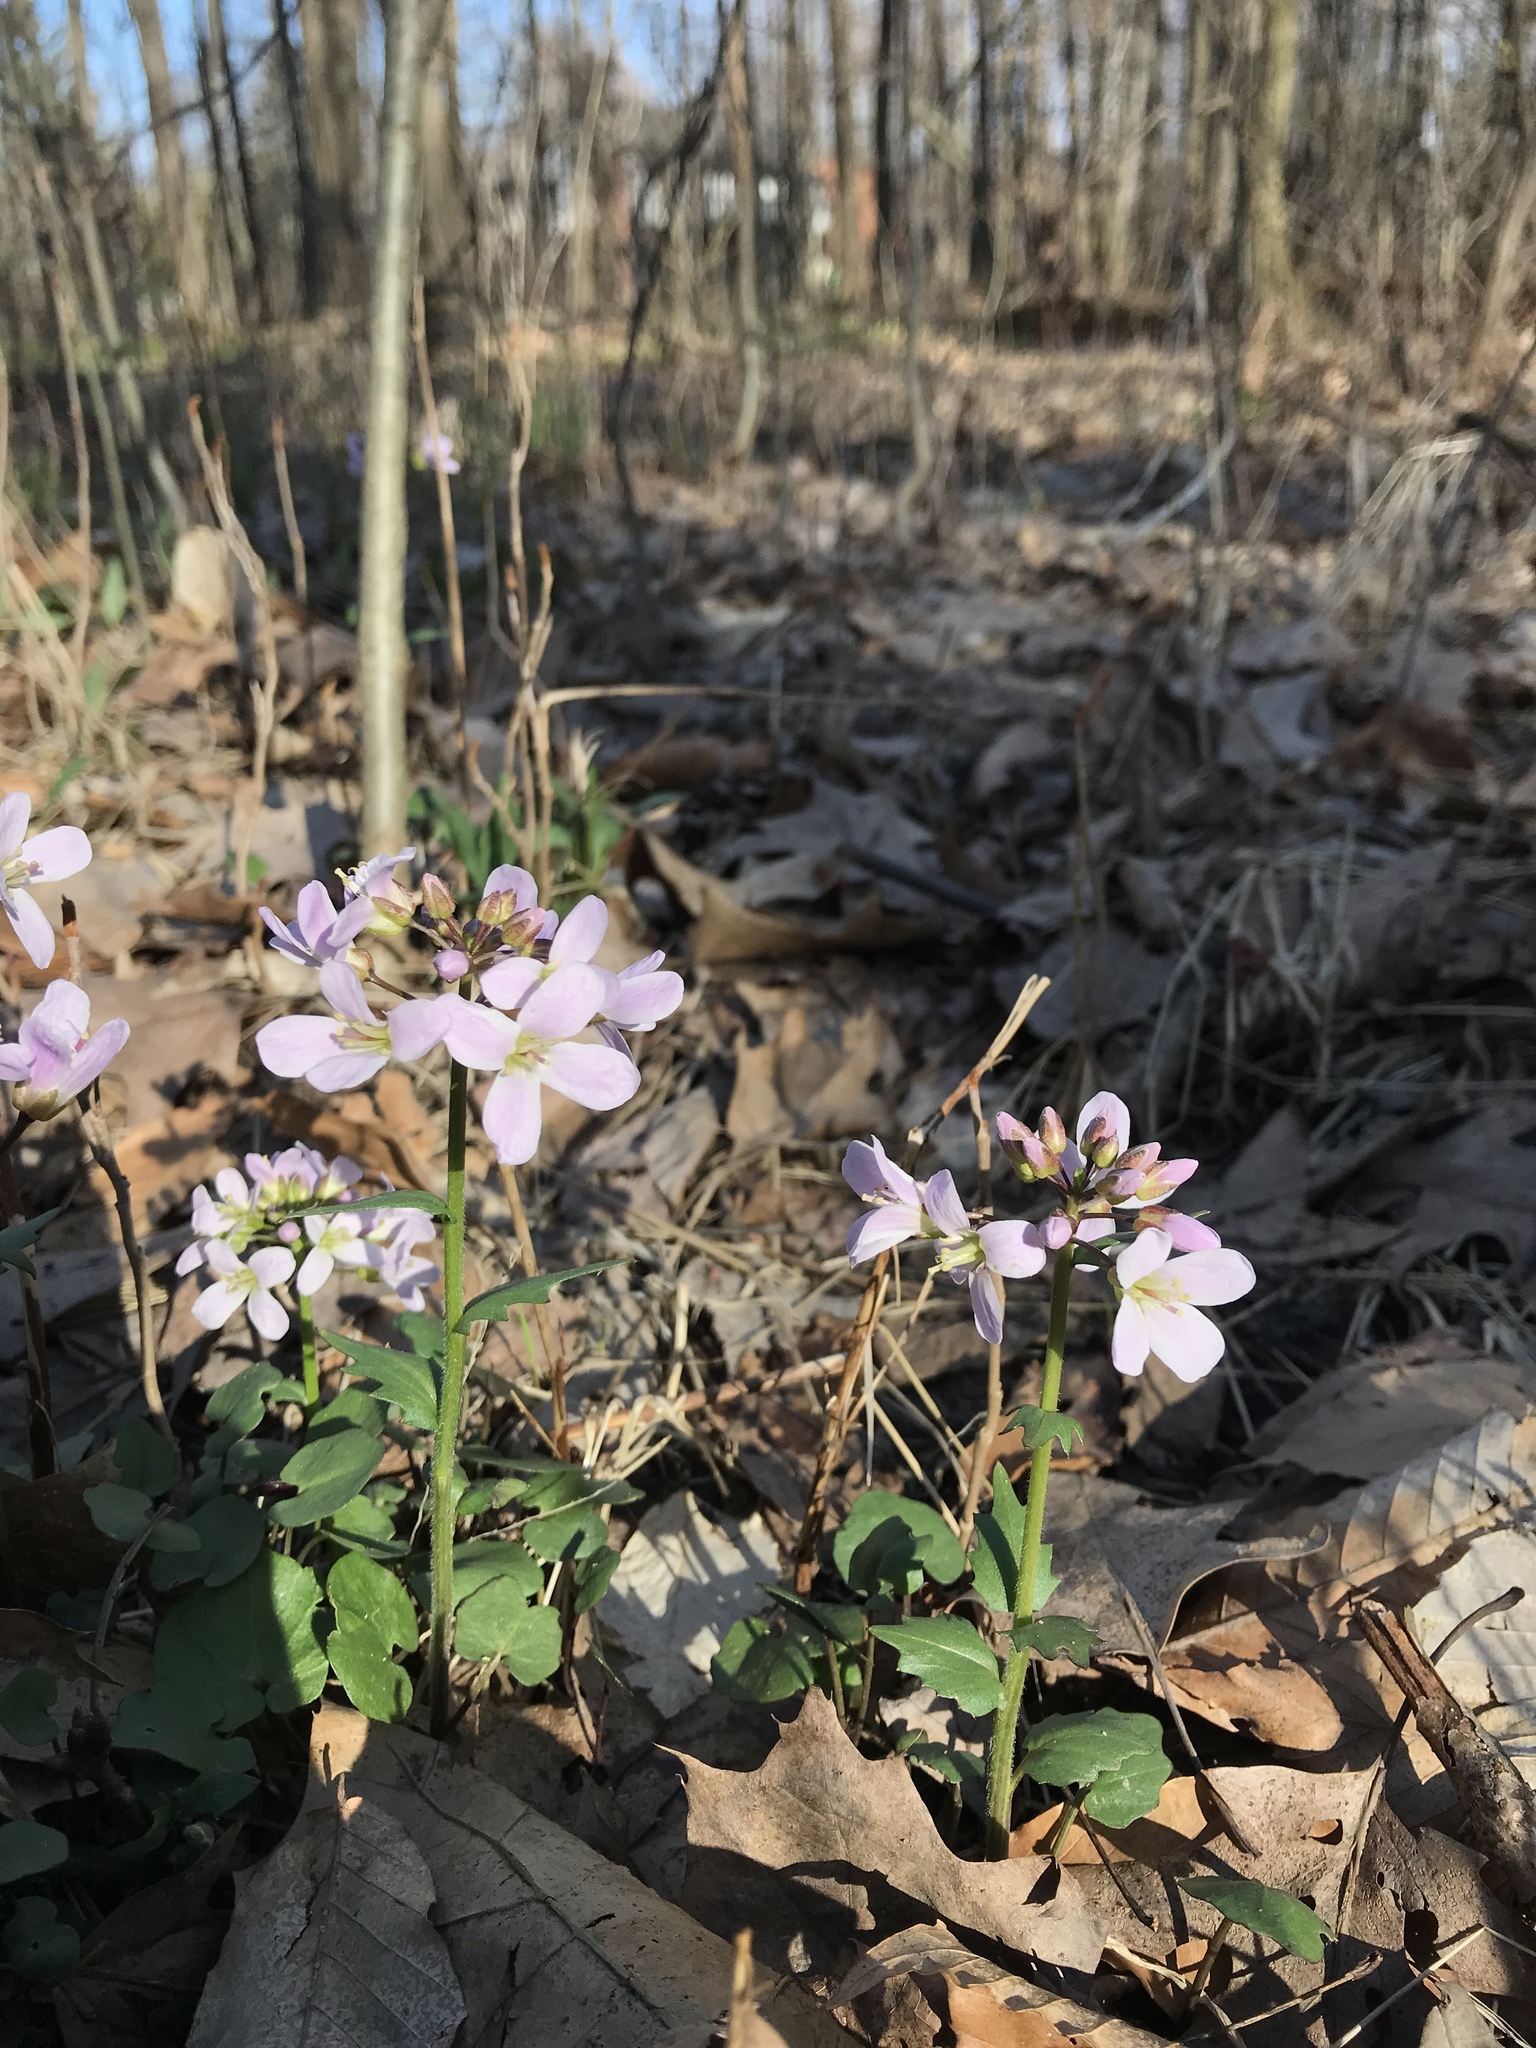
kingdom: Plantae
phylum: Tracheophyta
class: Magnoliopsida
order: Brassicales
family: Brassicaceae
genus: Cardamine
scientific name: Cardamine douglassii
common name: Purple cress
